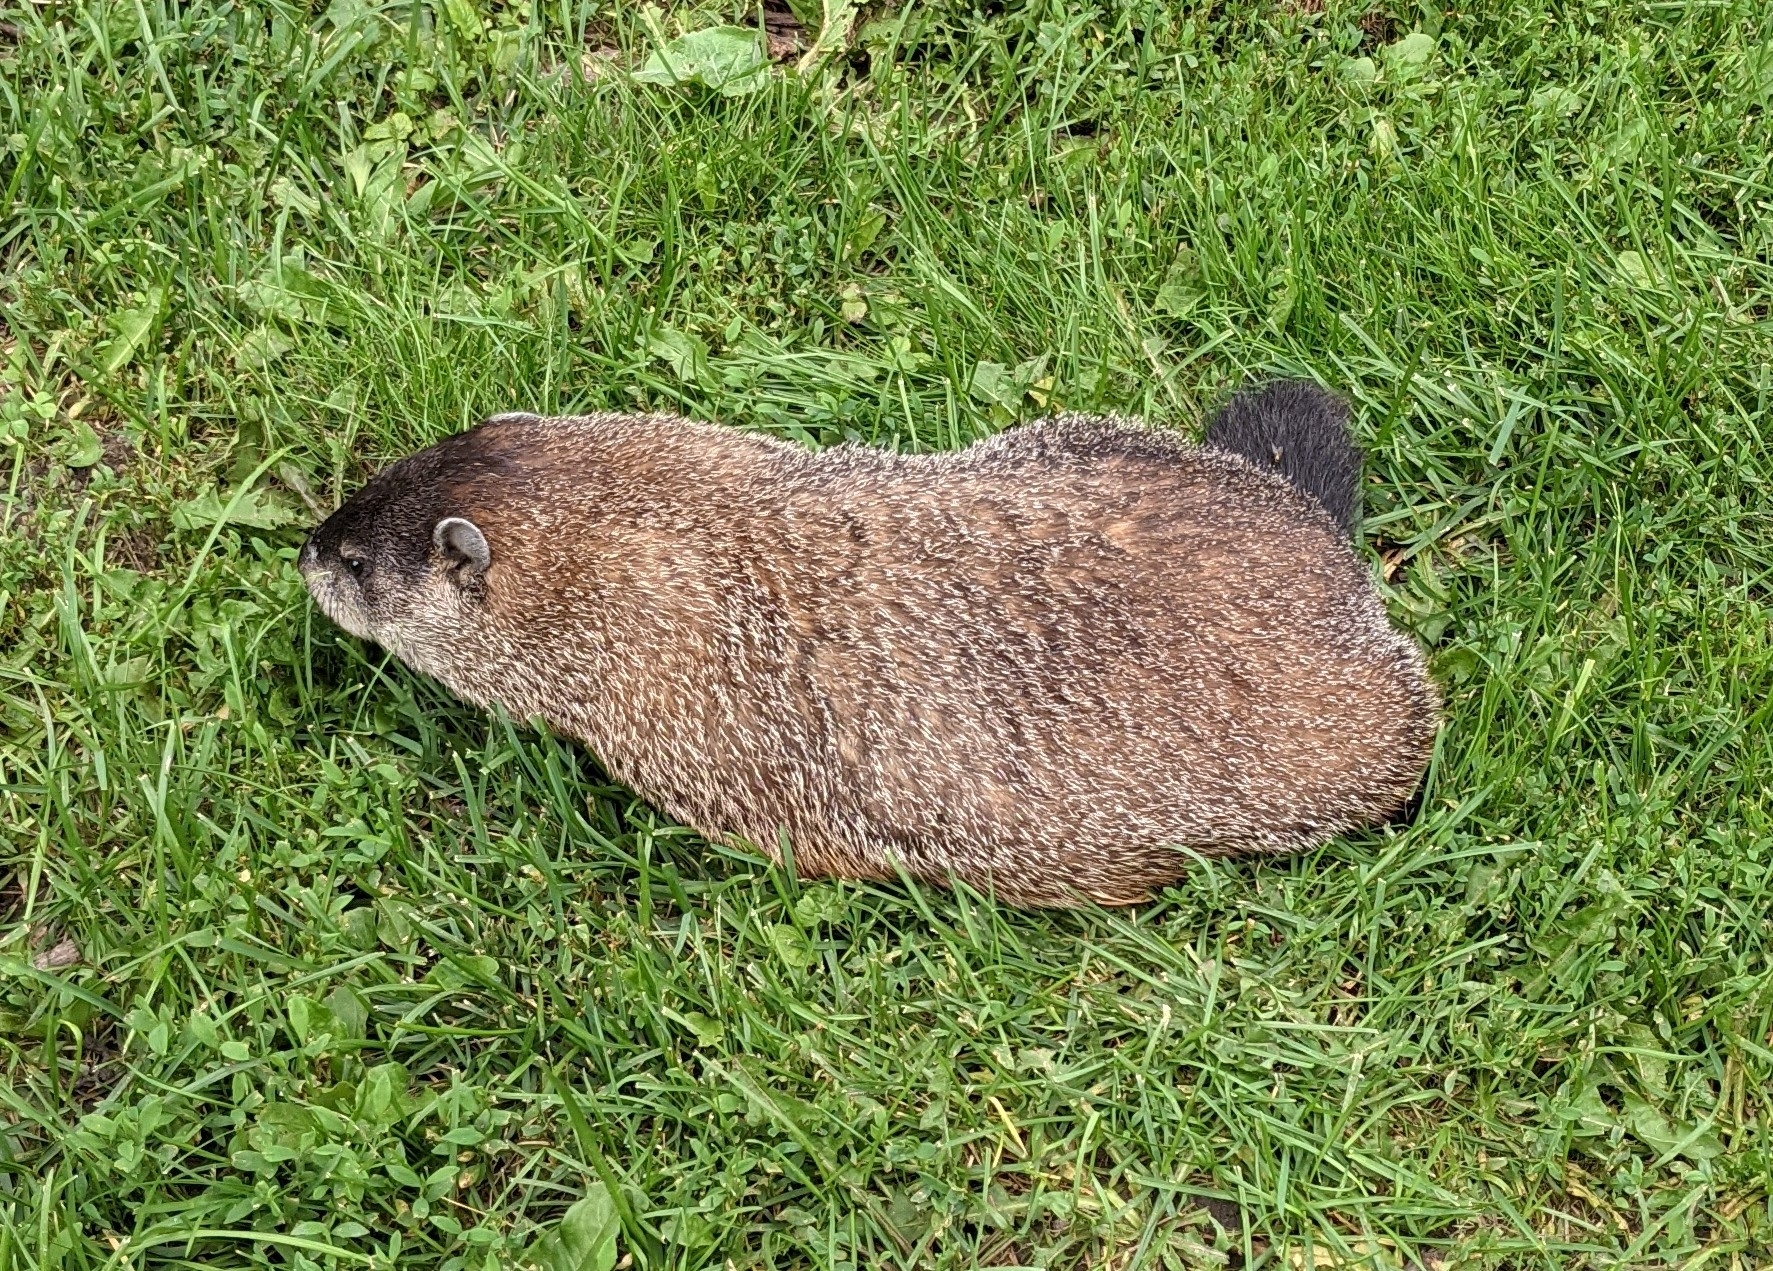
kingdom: Animalia
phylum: Chordata
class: Mammalia
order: Rodentia
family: Sciuridae
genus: Marmota
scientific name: Marmota monax
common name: Groundhog
